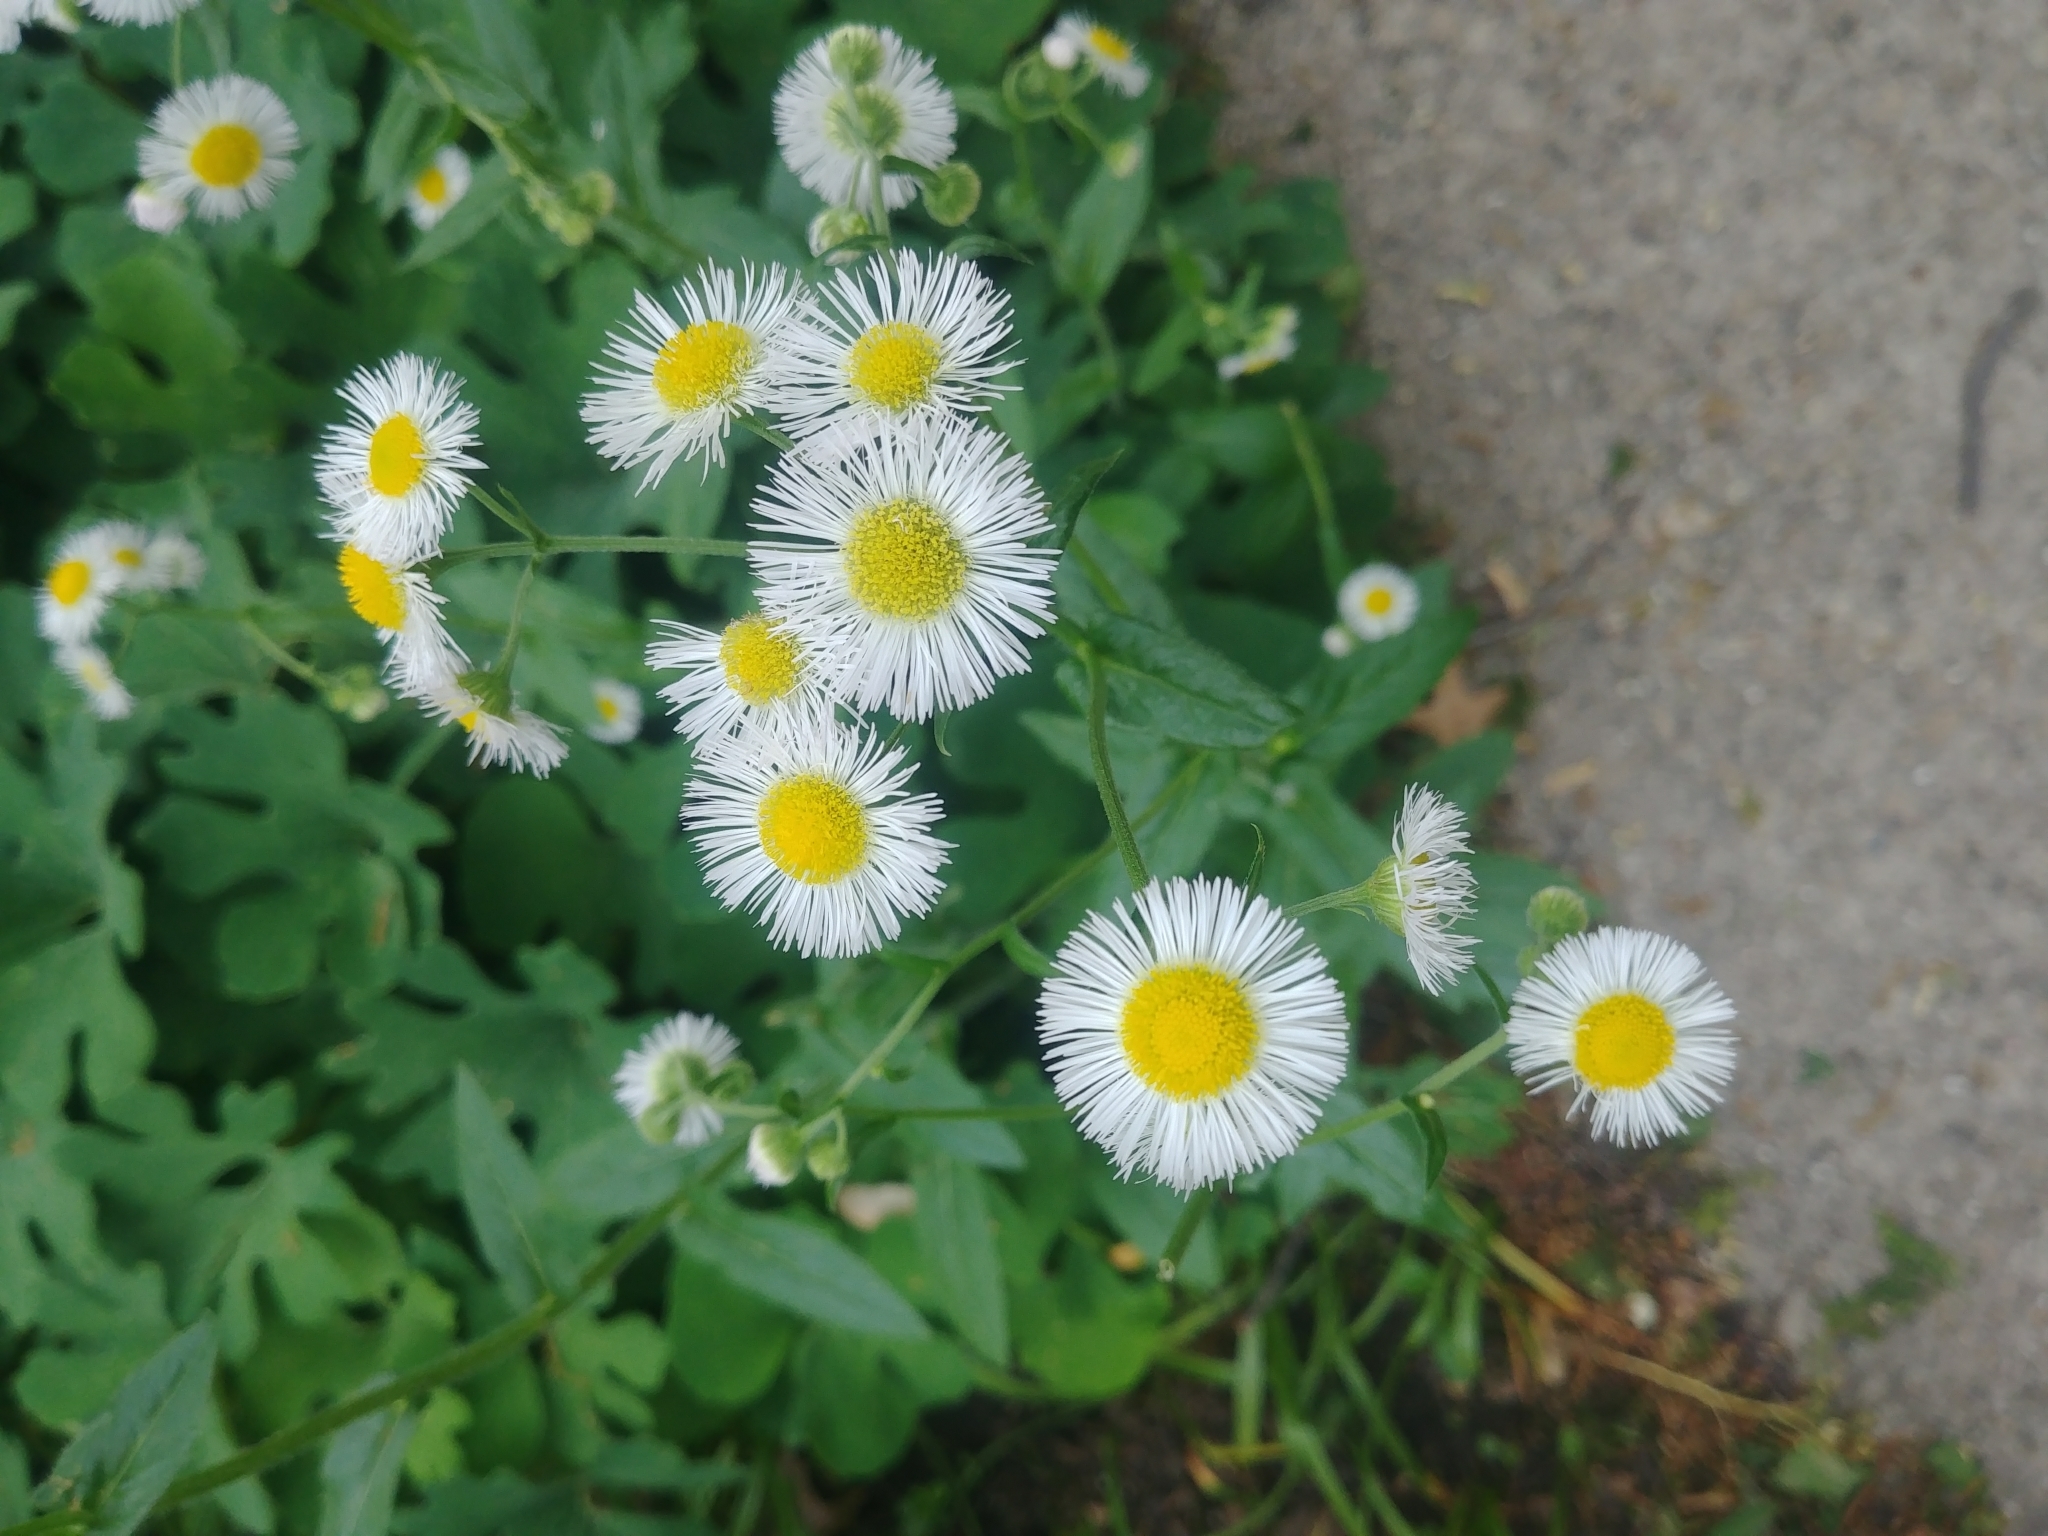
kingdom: Plantae
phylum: Tracheophyta
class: Magnoliopsida
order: Asterales
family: Asteraceae
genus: Erigeron
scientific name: Erigeron philadelphicus
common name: Robin's-plantain
